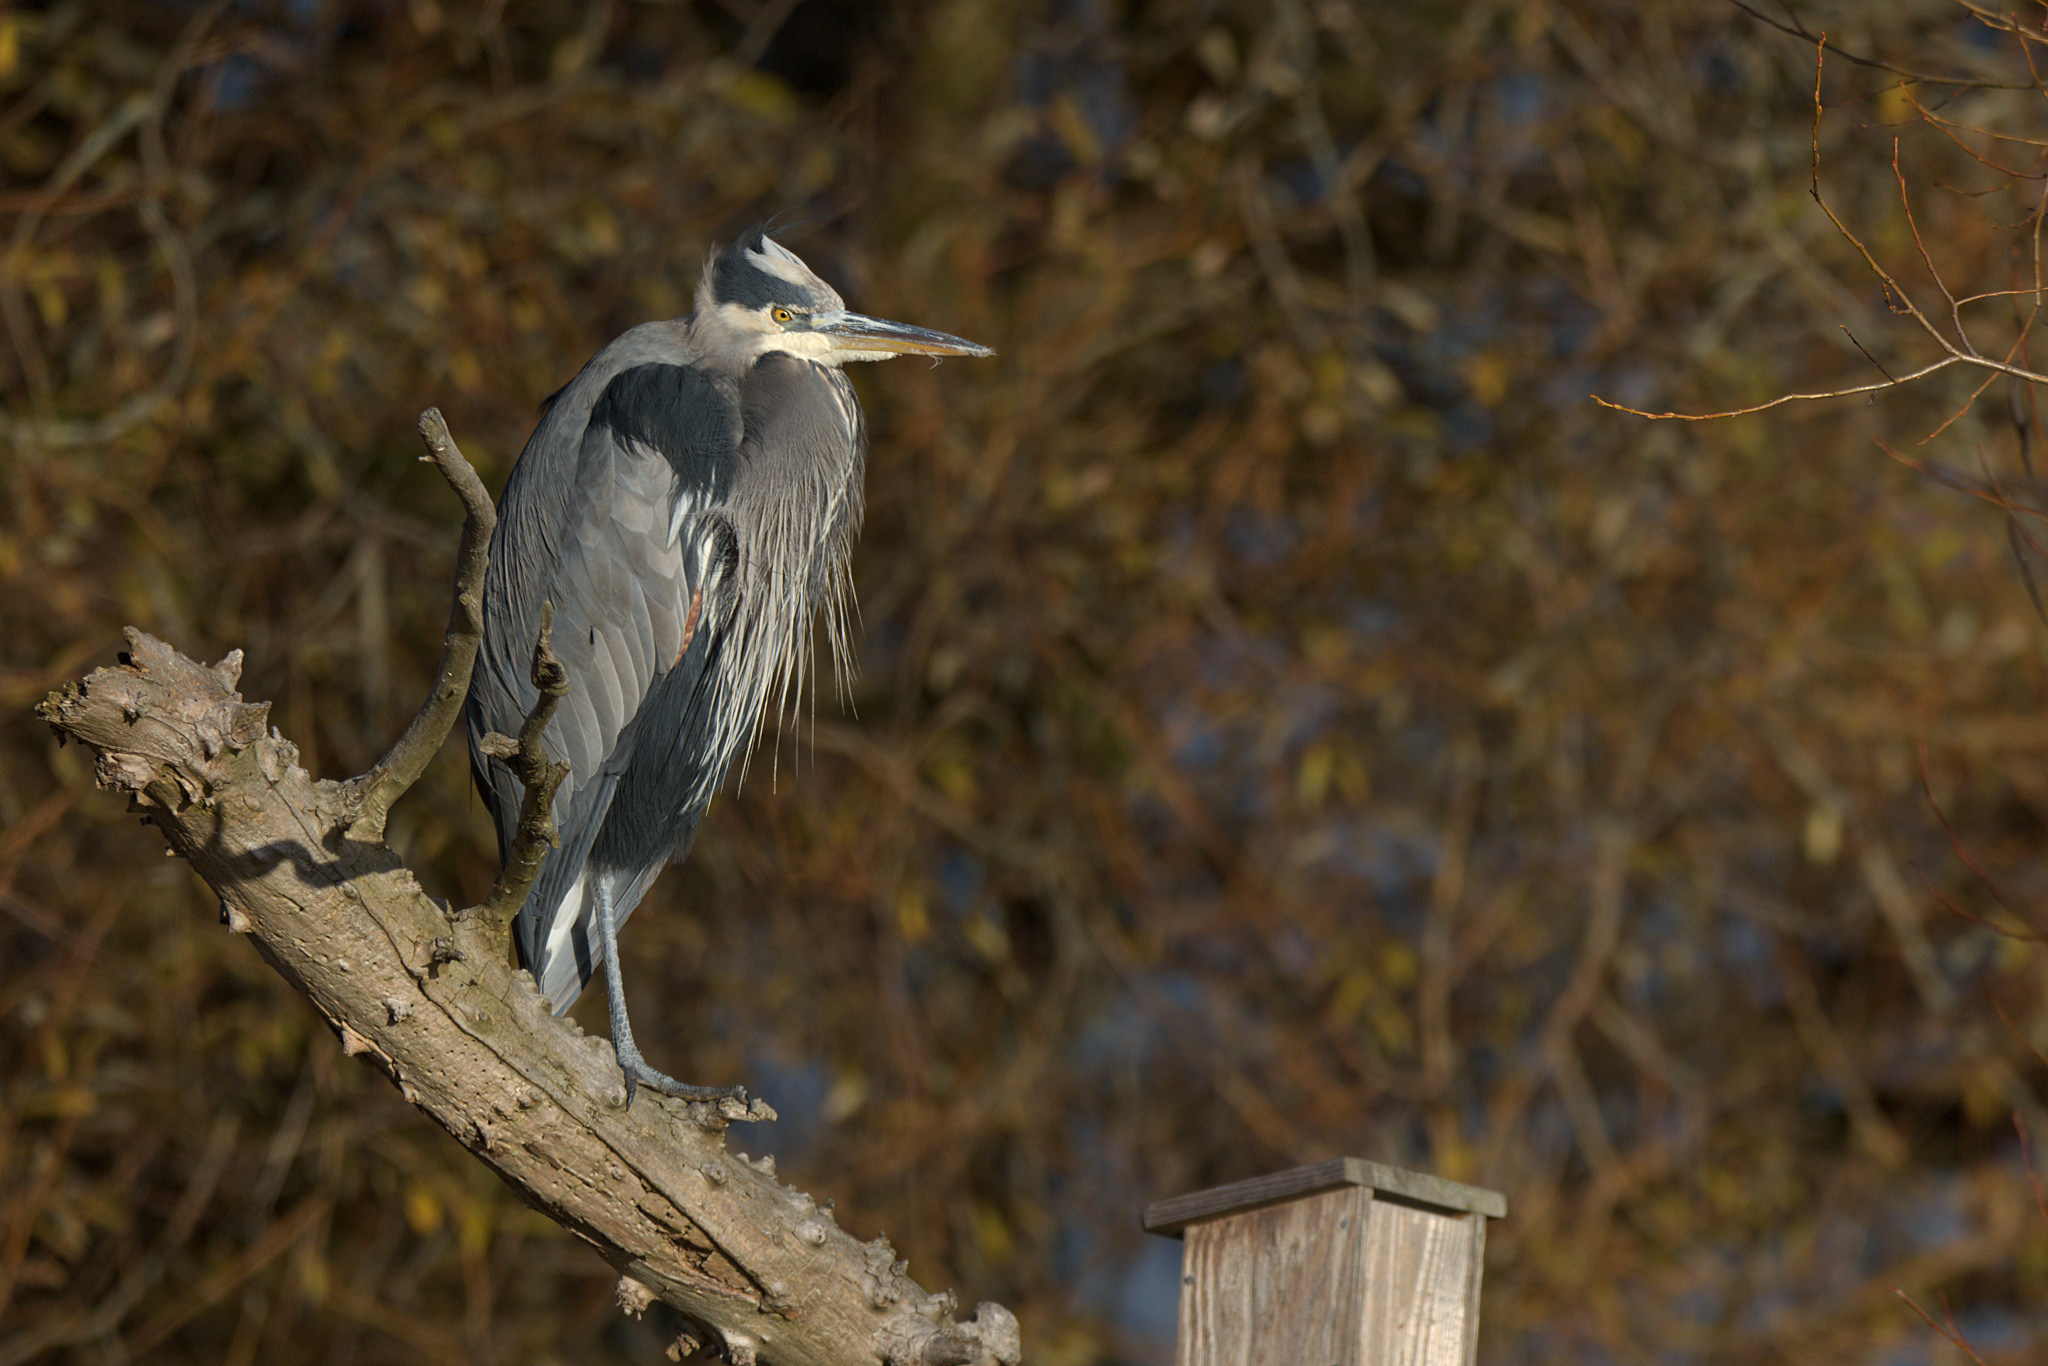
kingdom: Animalia
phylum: Chordata
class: Aves
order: Pelecaniformes
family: Ardeidae
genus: Ardea
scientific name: Ardea herodias
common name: Great blue heron
